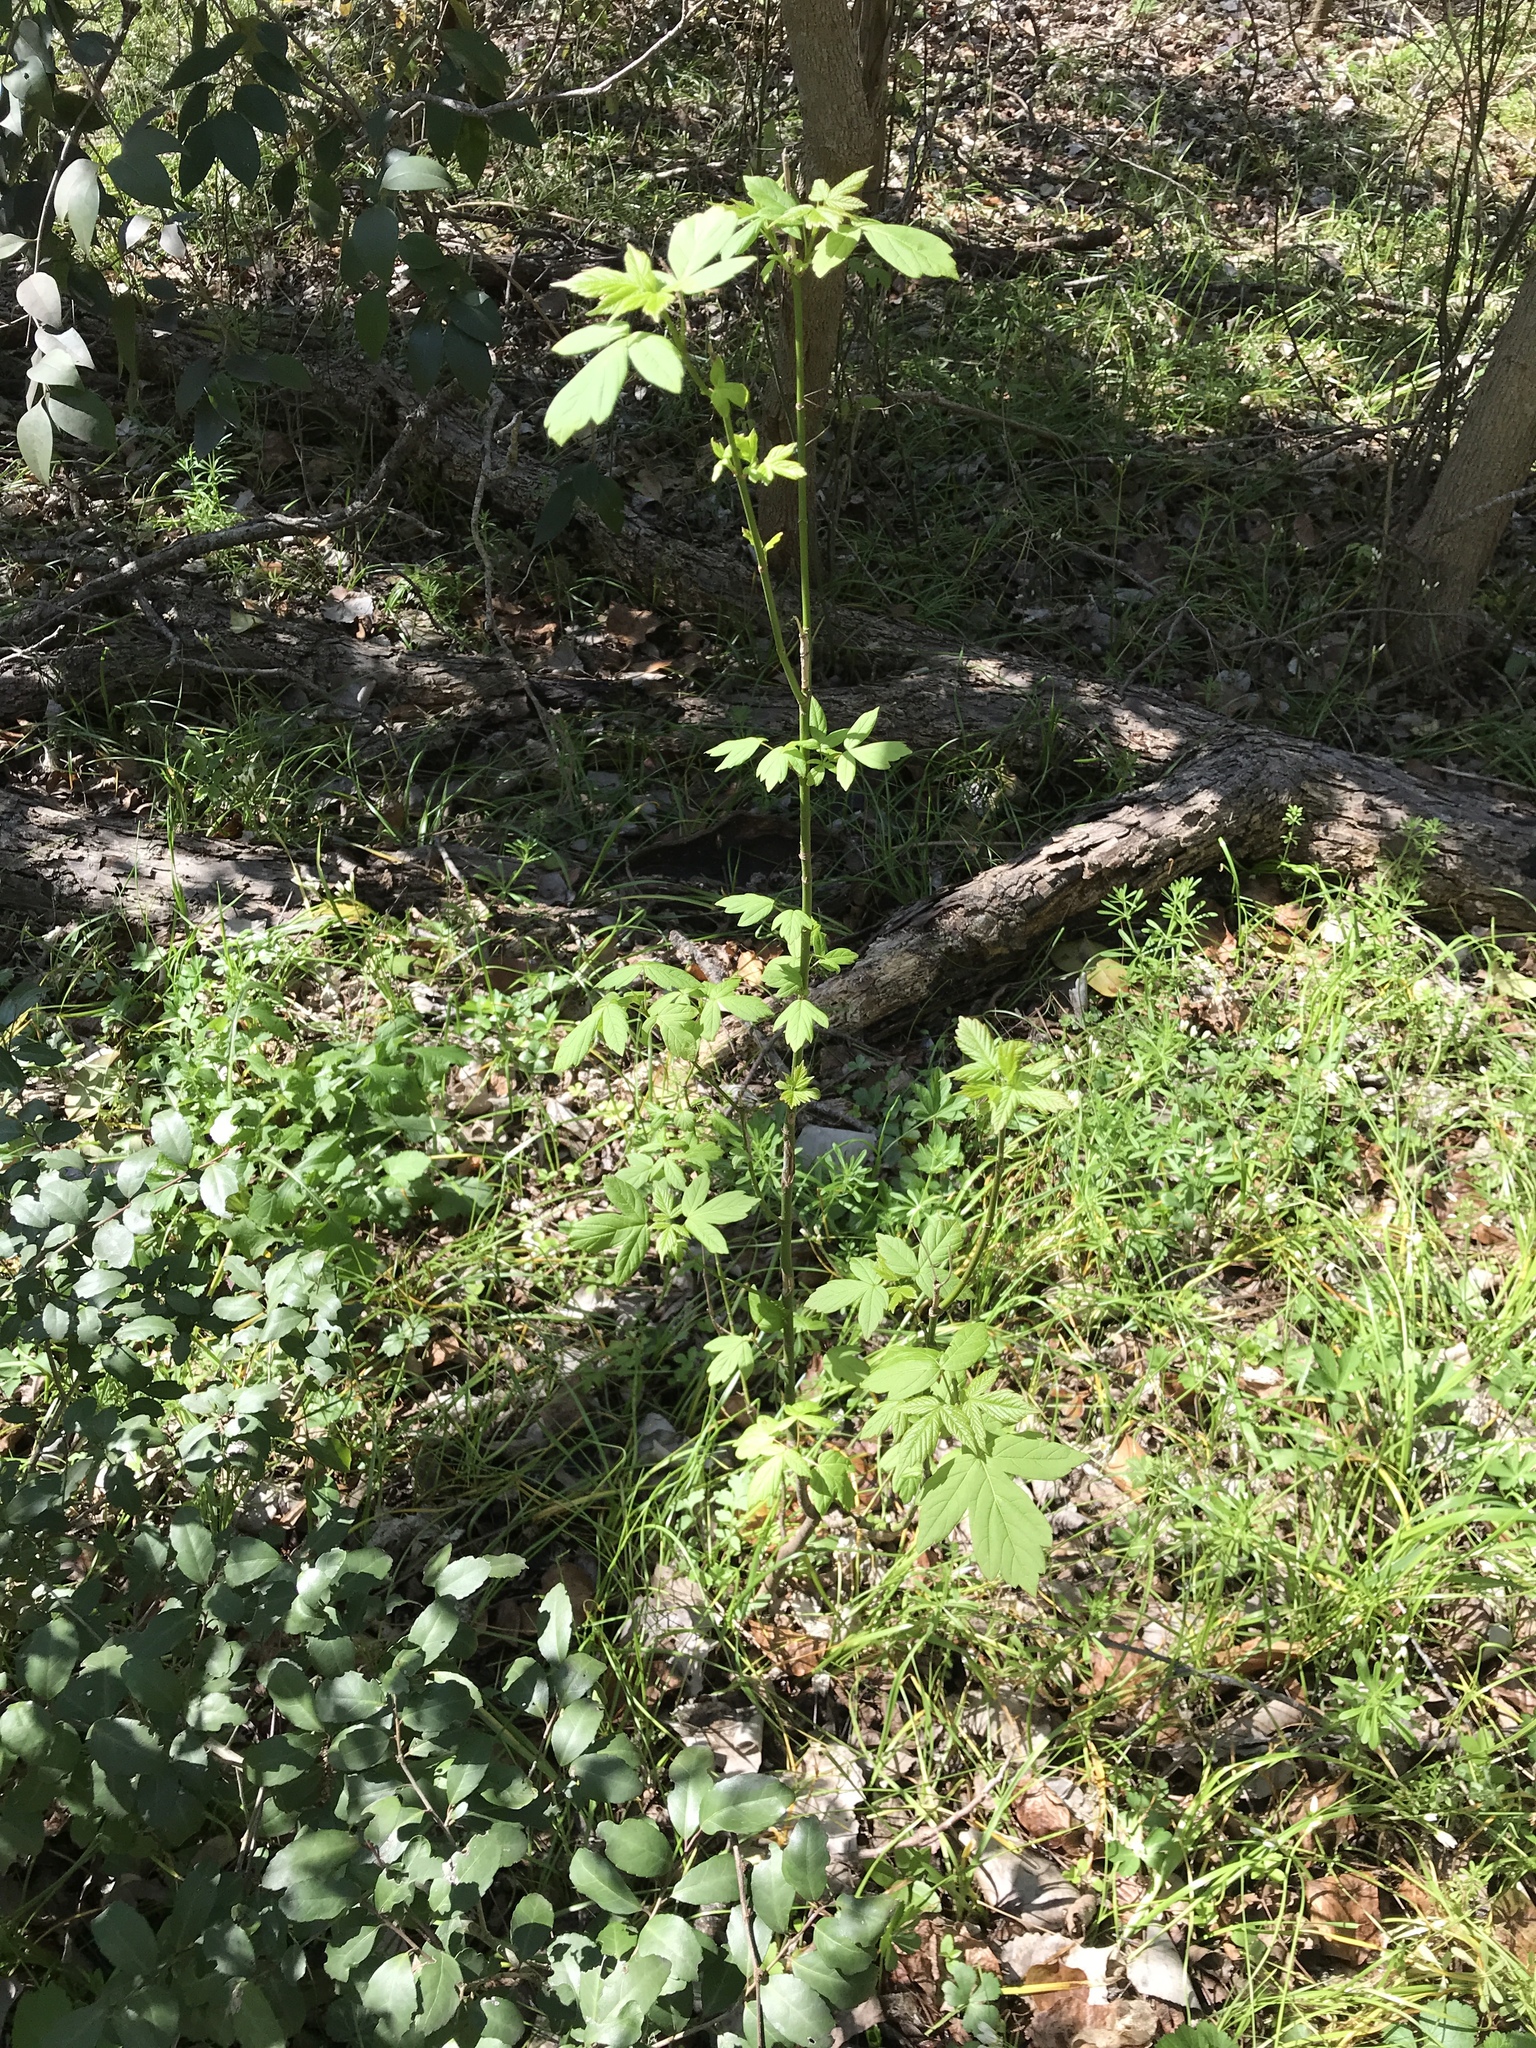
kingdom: Plantae
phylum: Tracheophyta
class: Magnoliopsida
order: Sapindales
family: Sapindaceae
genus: Acer
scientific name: Acer negundo
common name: Ashleaf maple
